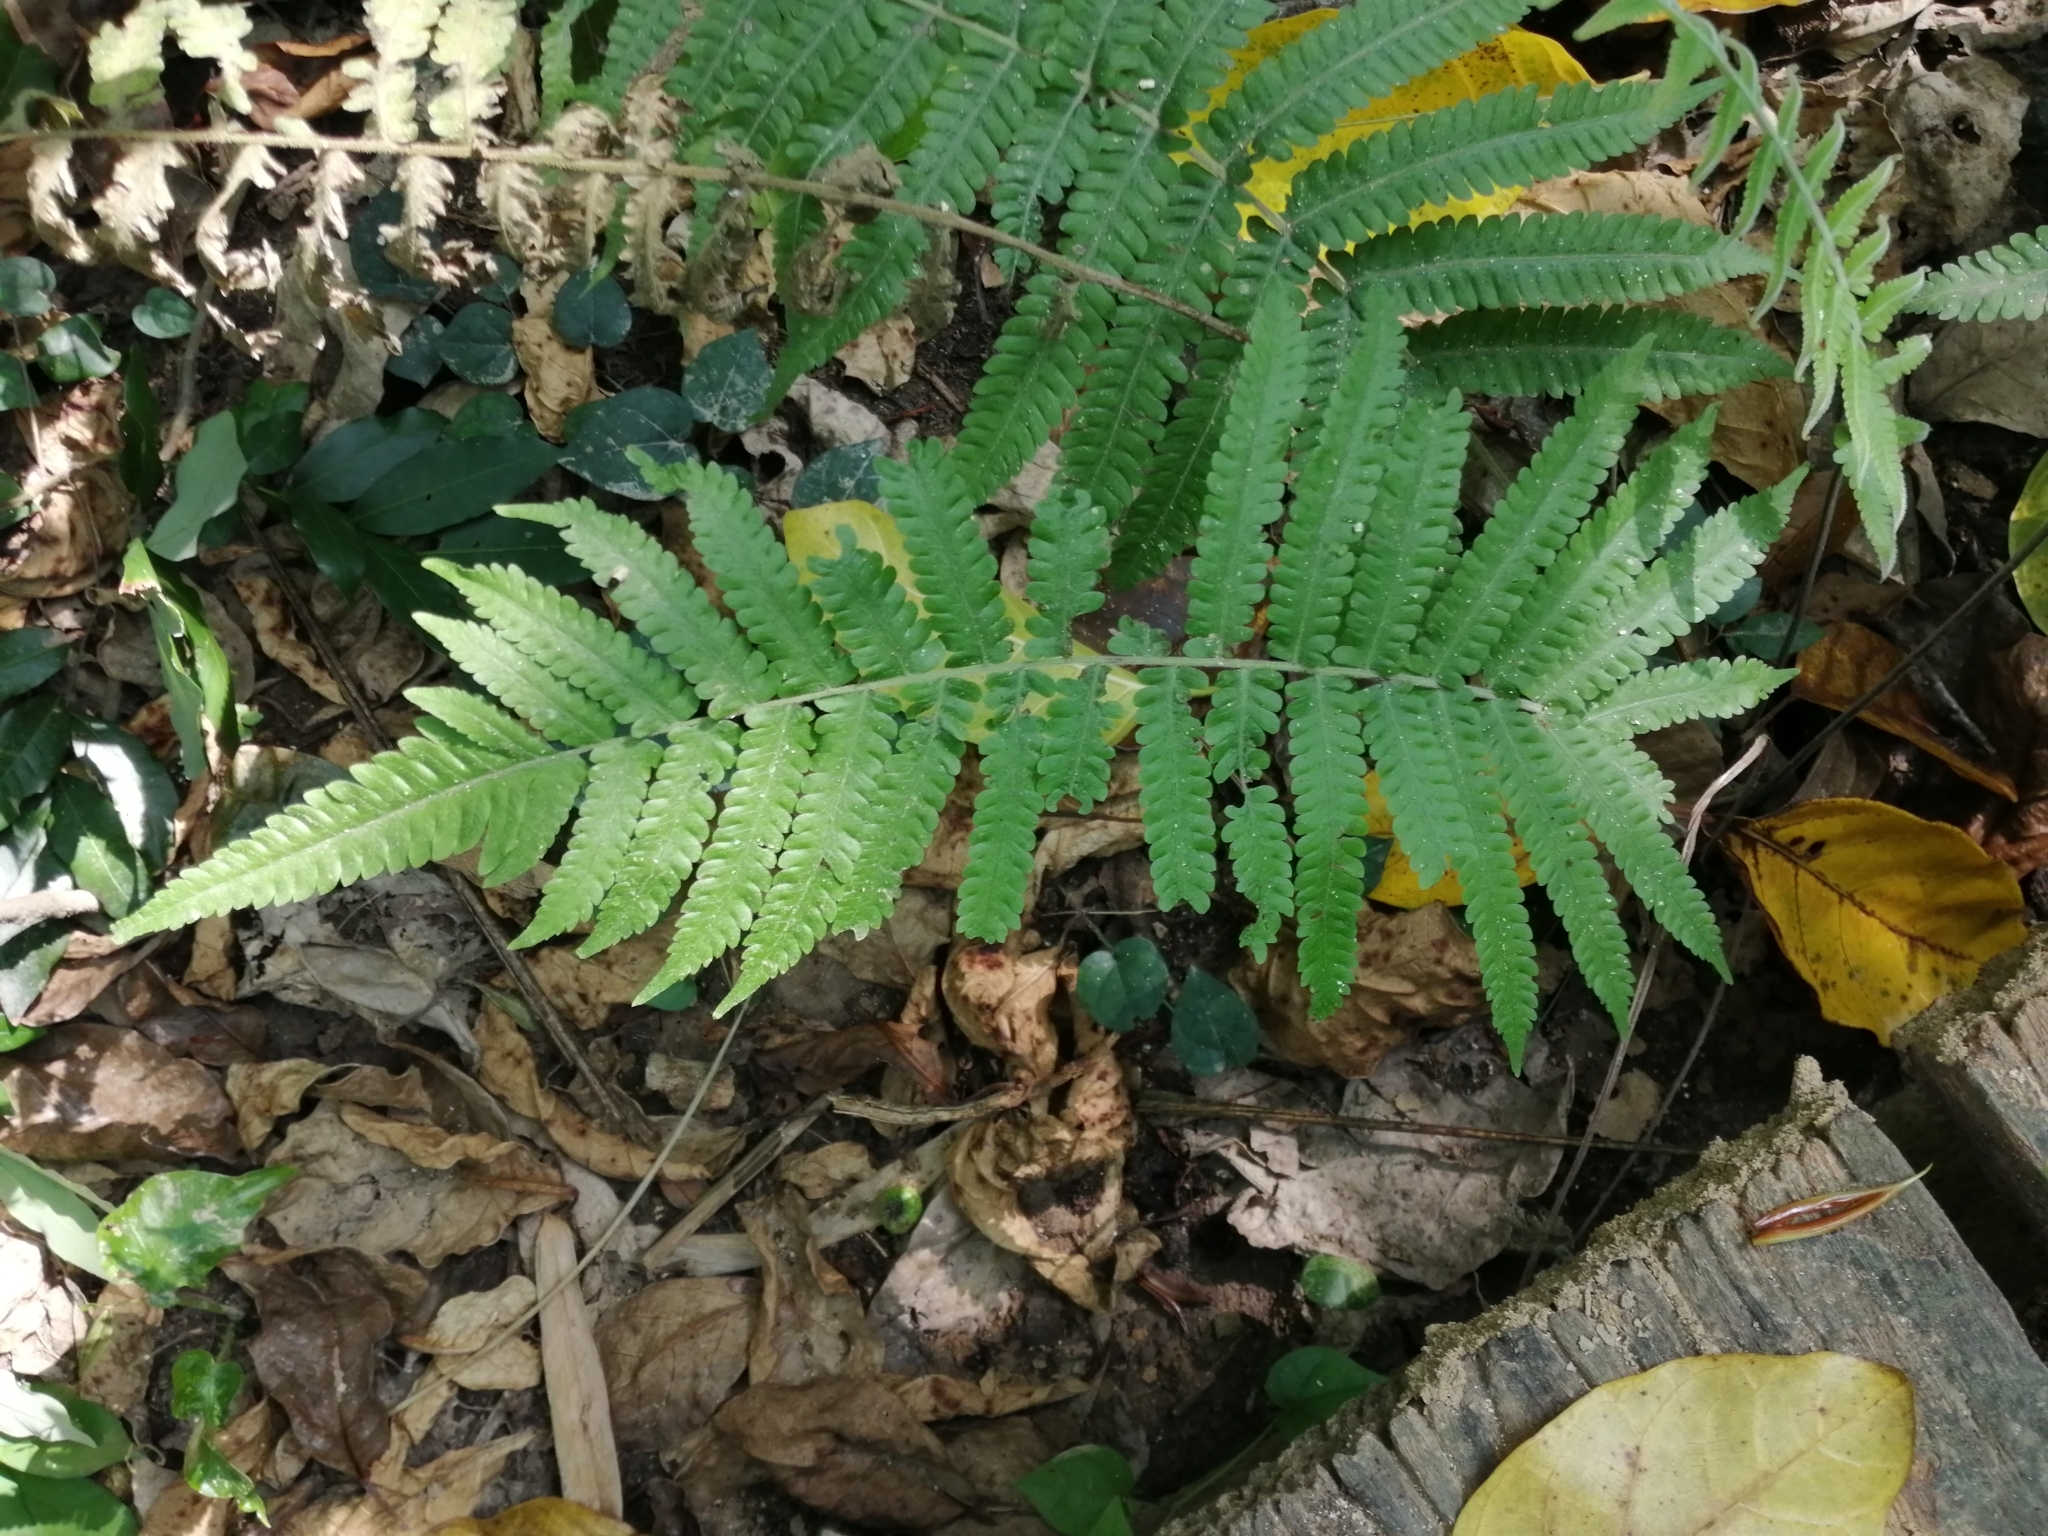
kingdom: Plantae
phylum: Tracheophyta
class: Polypodiopsida
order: Polypodiales
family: Thelypteridaceae
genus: Christella
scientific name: Christella parasitica
